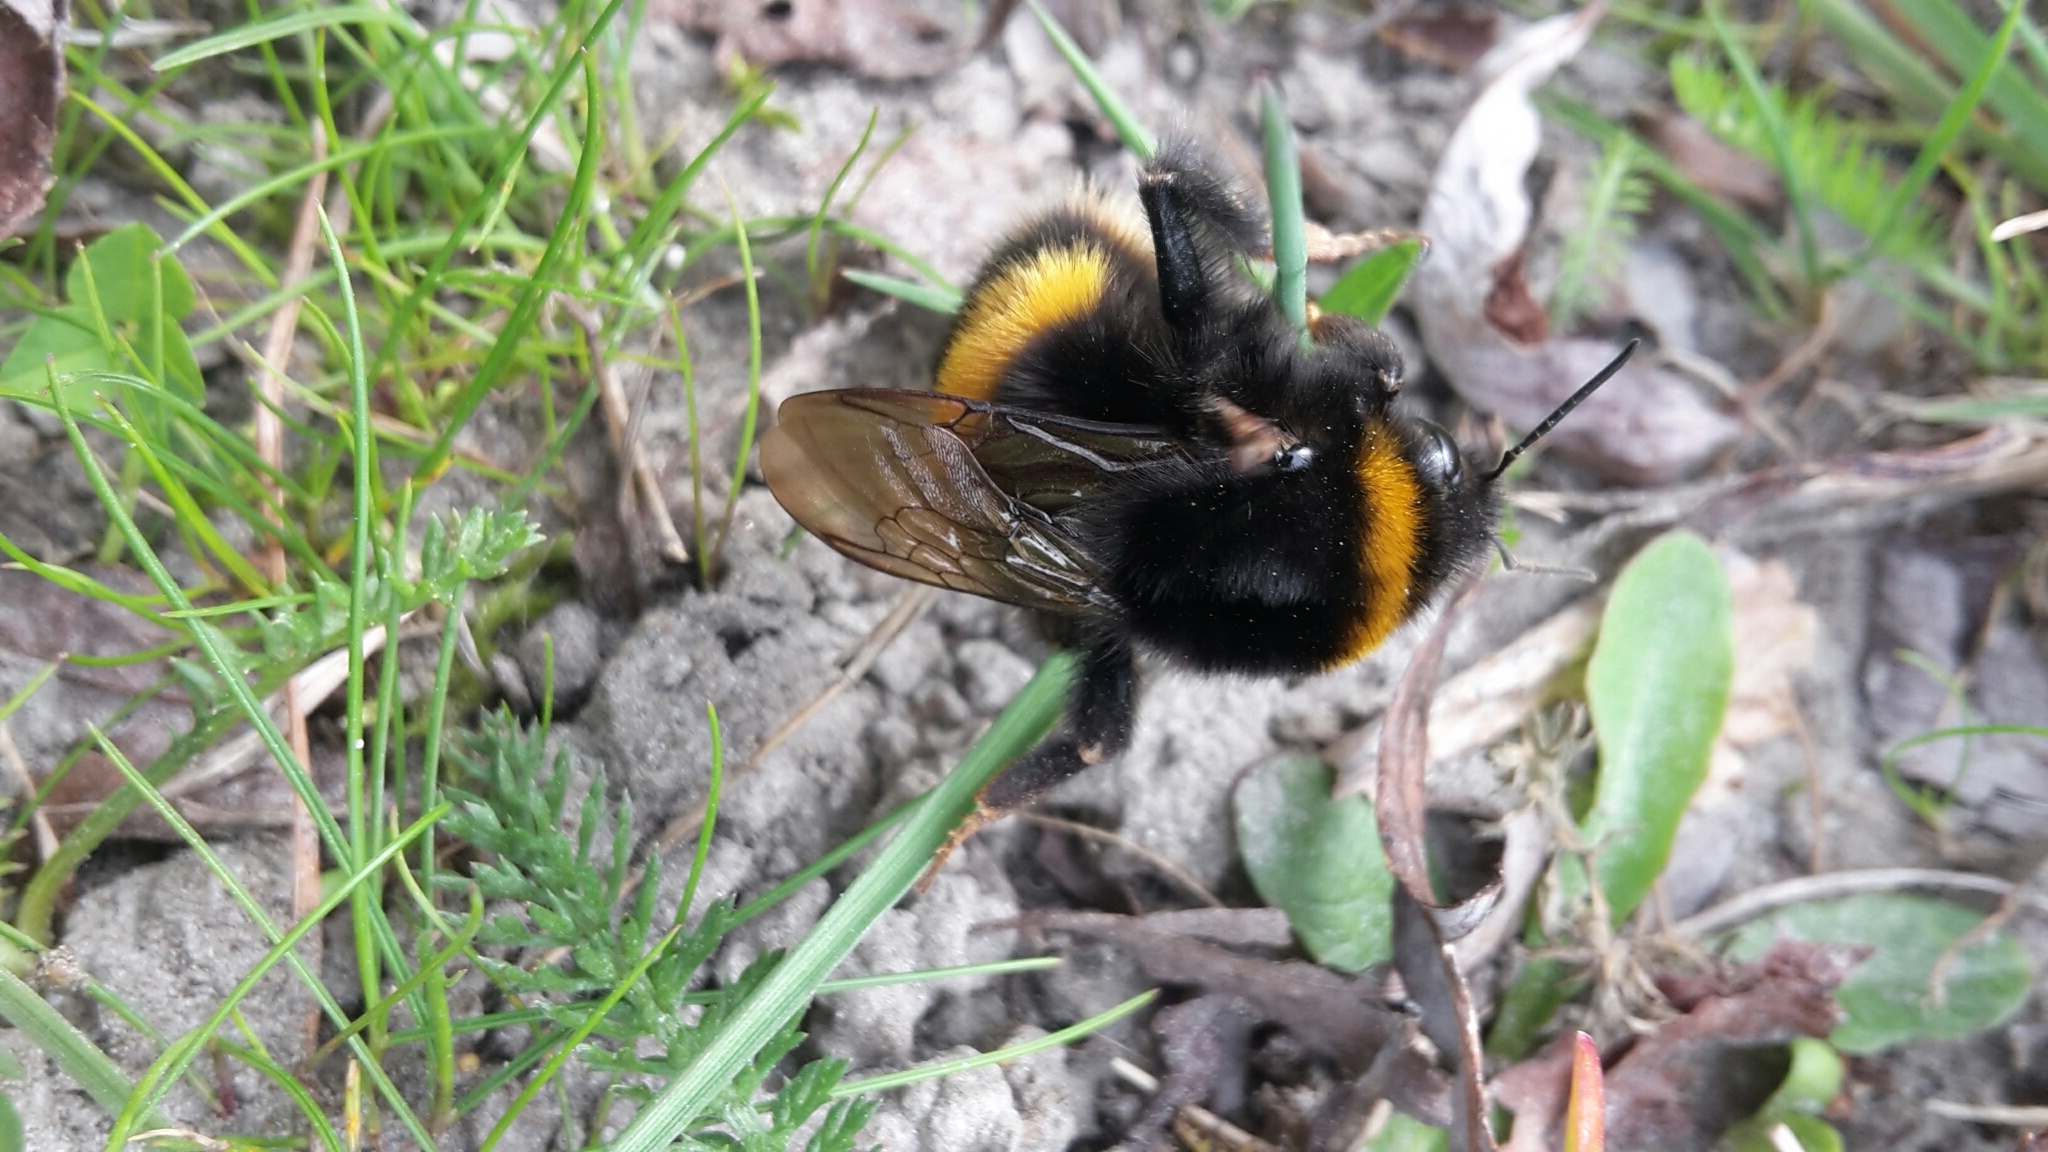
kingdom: Animalia
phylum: Arthropoda
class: Insecta
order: Hymenoptera
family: Apidae
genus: Bombus
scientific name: Bombus terrestris
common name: Buff-tailed bumblebee
